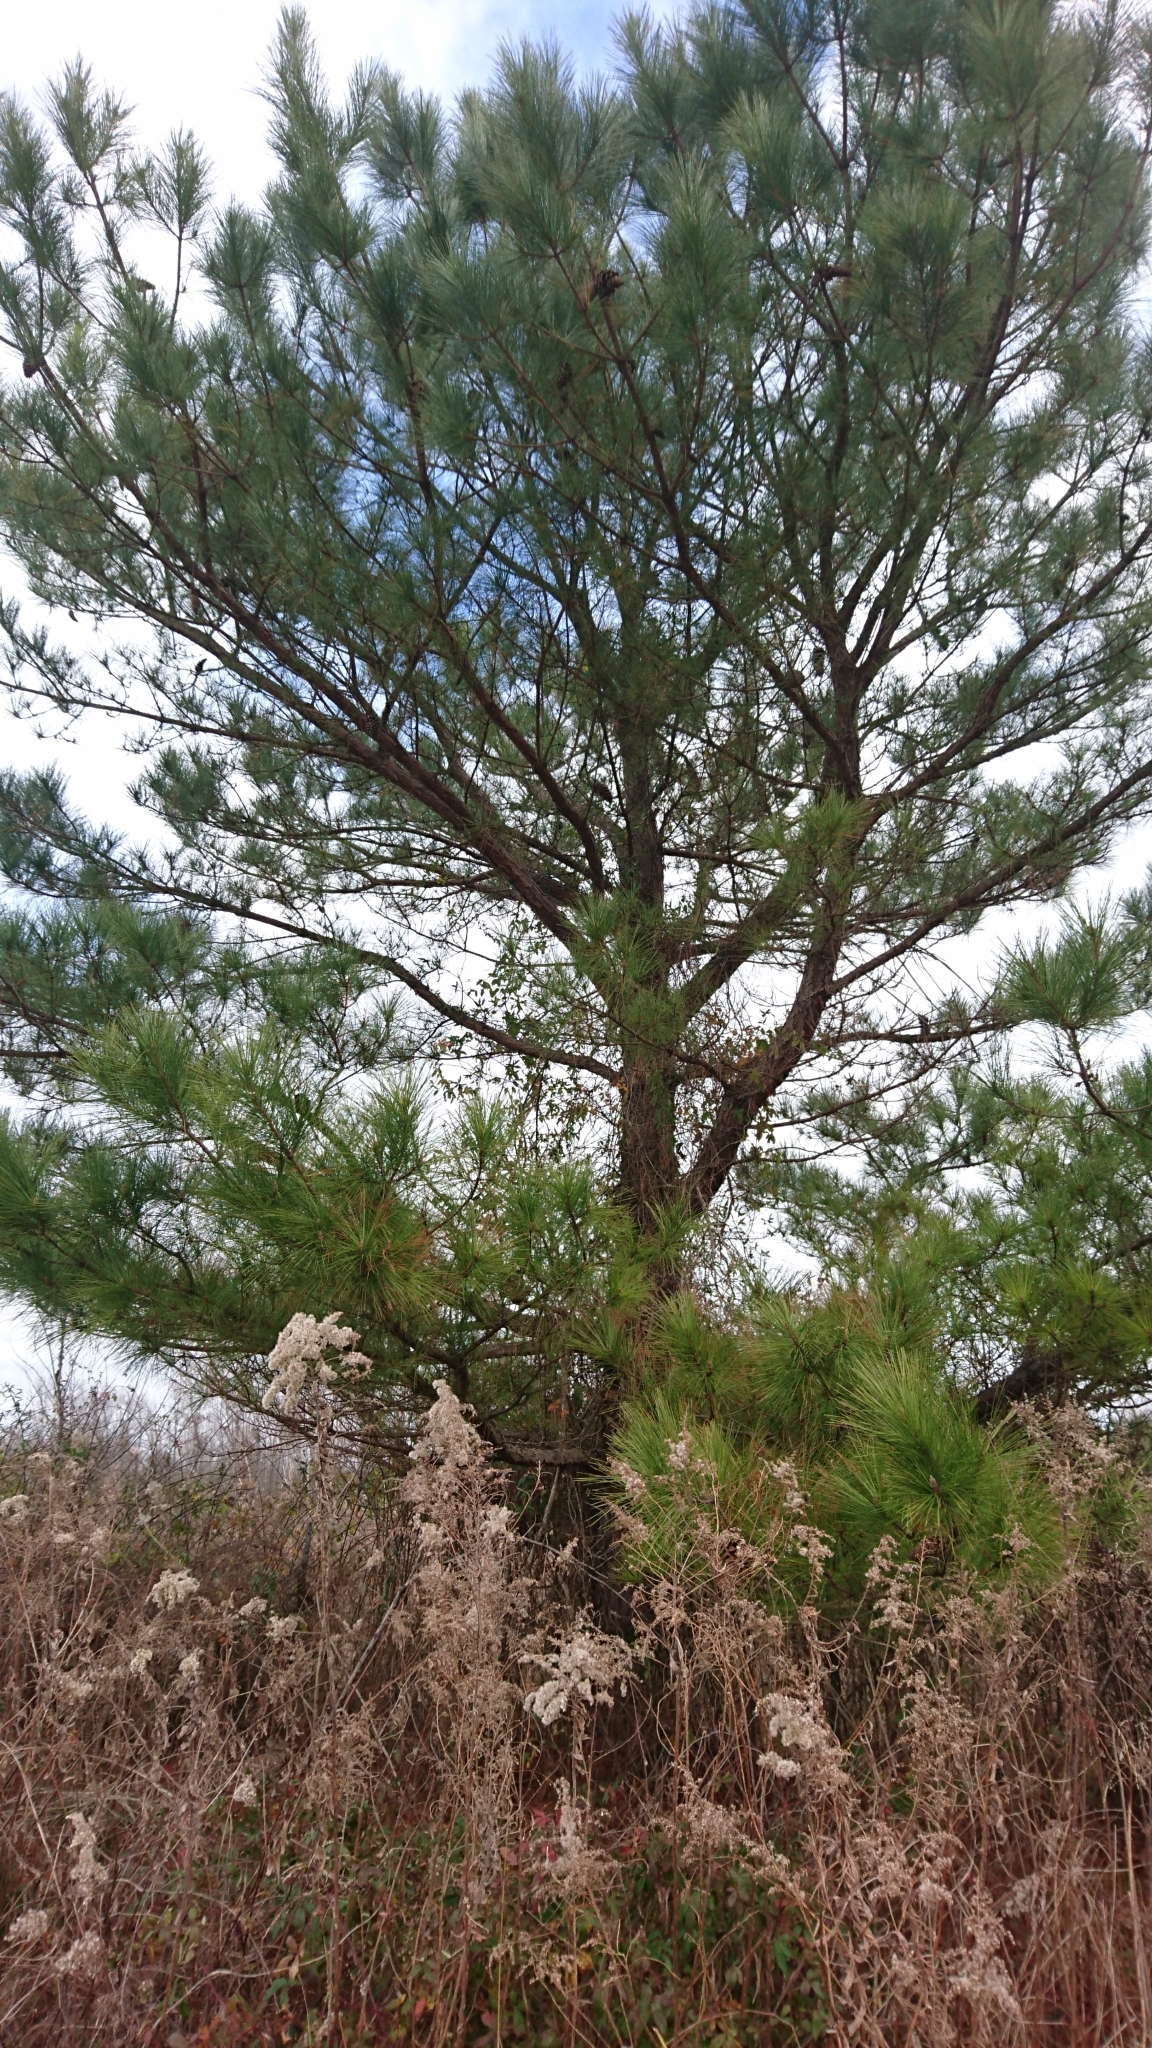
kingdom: Plantae
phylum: Tracheophyta
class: Pinopsida
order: Pinales
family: Pinaceae
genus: Pinus
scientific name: Pinus taeda
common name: Loblolly pine
